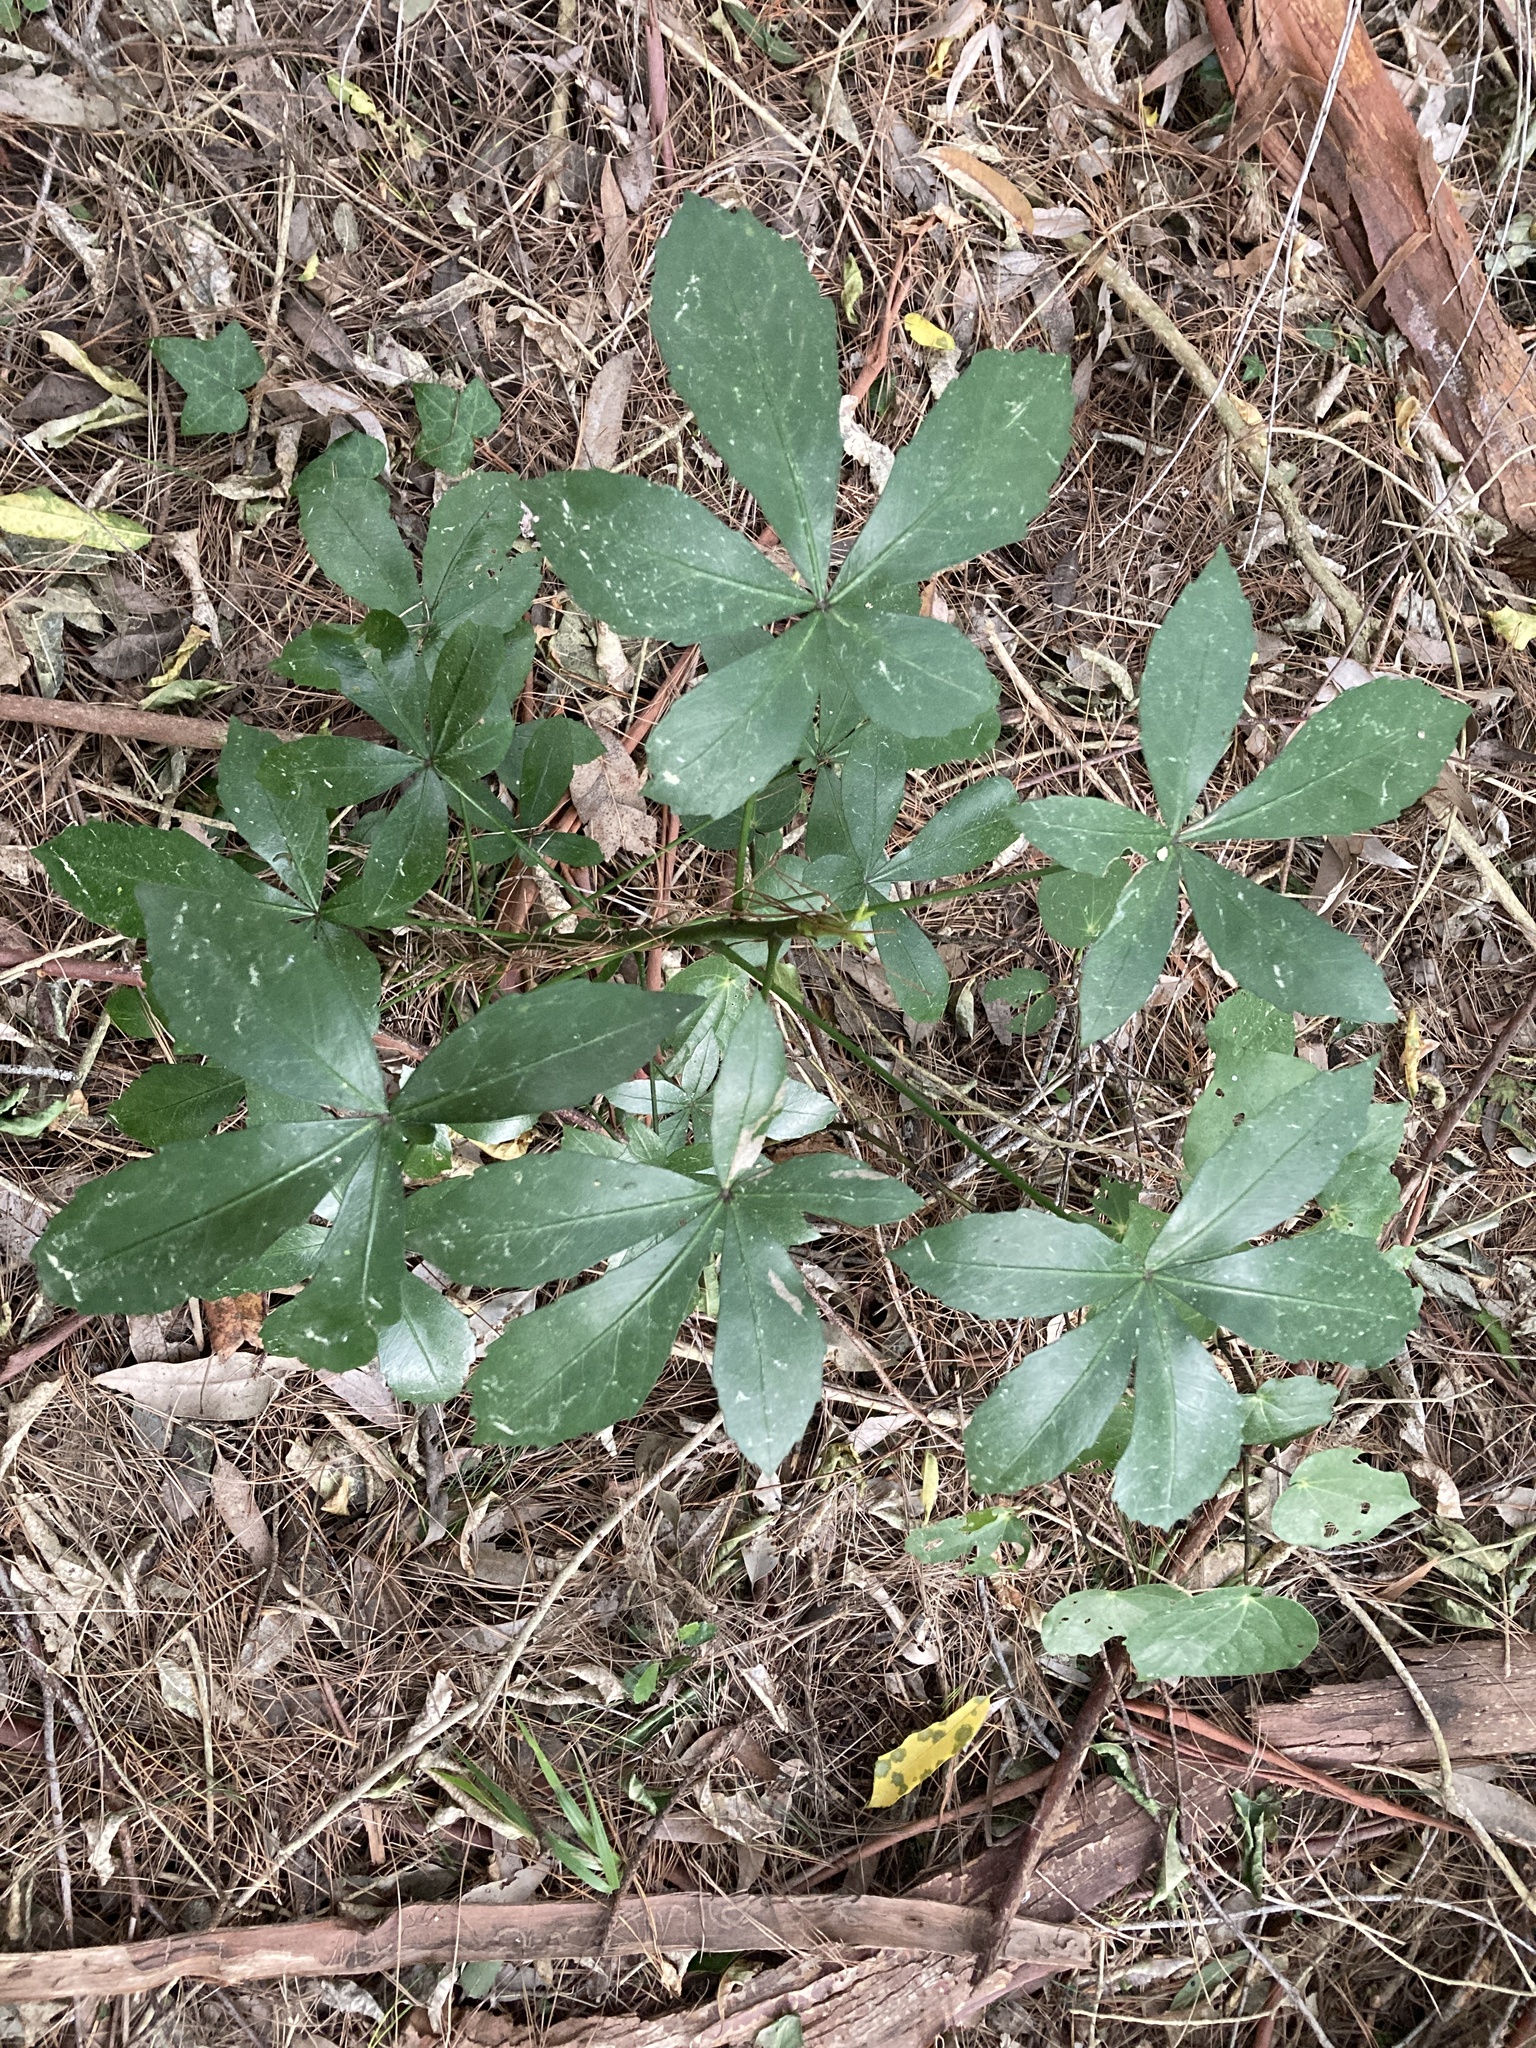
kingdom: Plantae
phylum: Tracheophyta
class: Magnoliopsida
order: Apiales
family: Araliaceae
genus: Pseudopanax
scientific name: Pseudopanax lessonii
